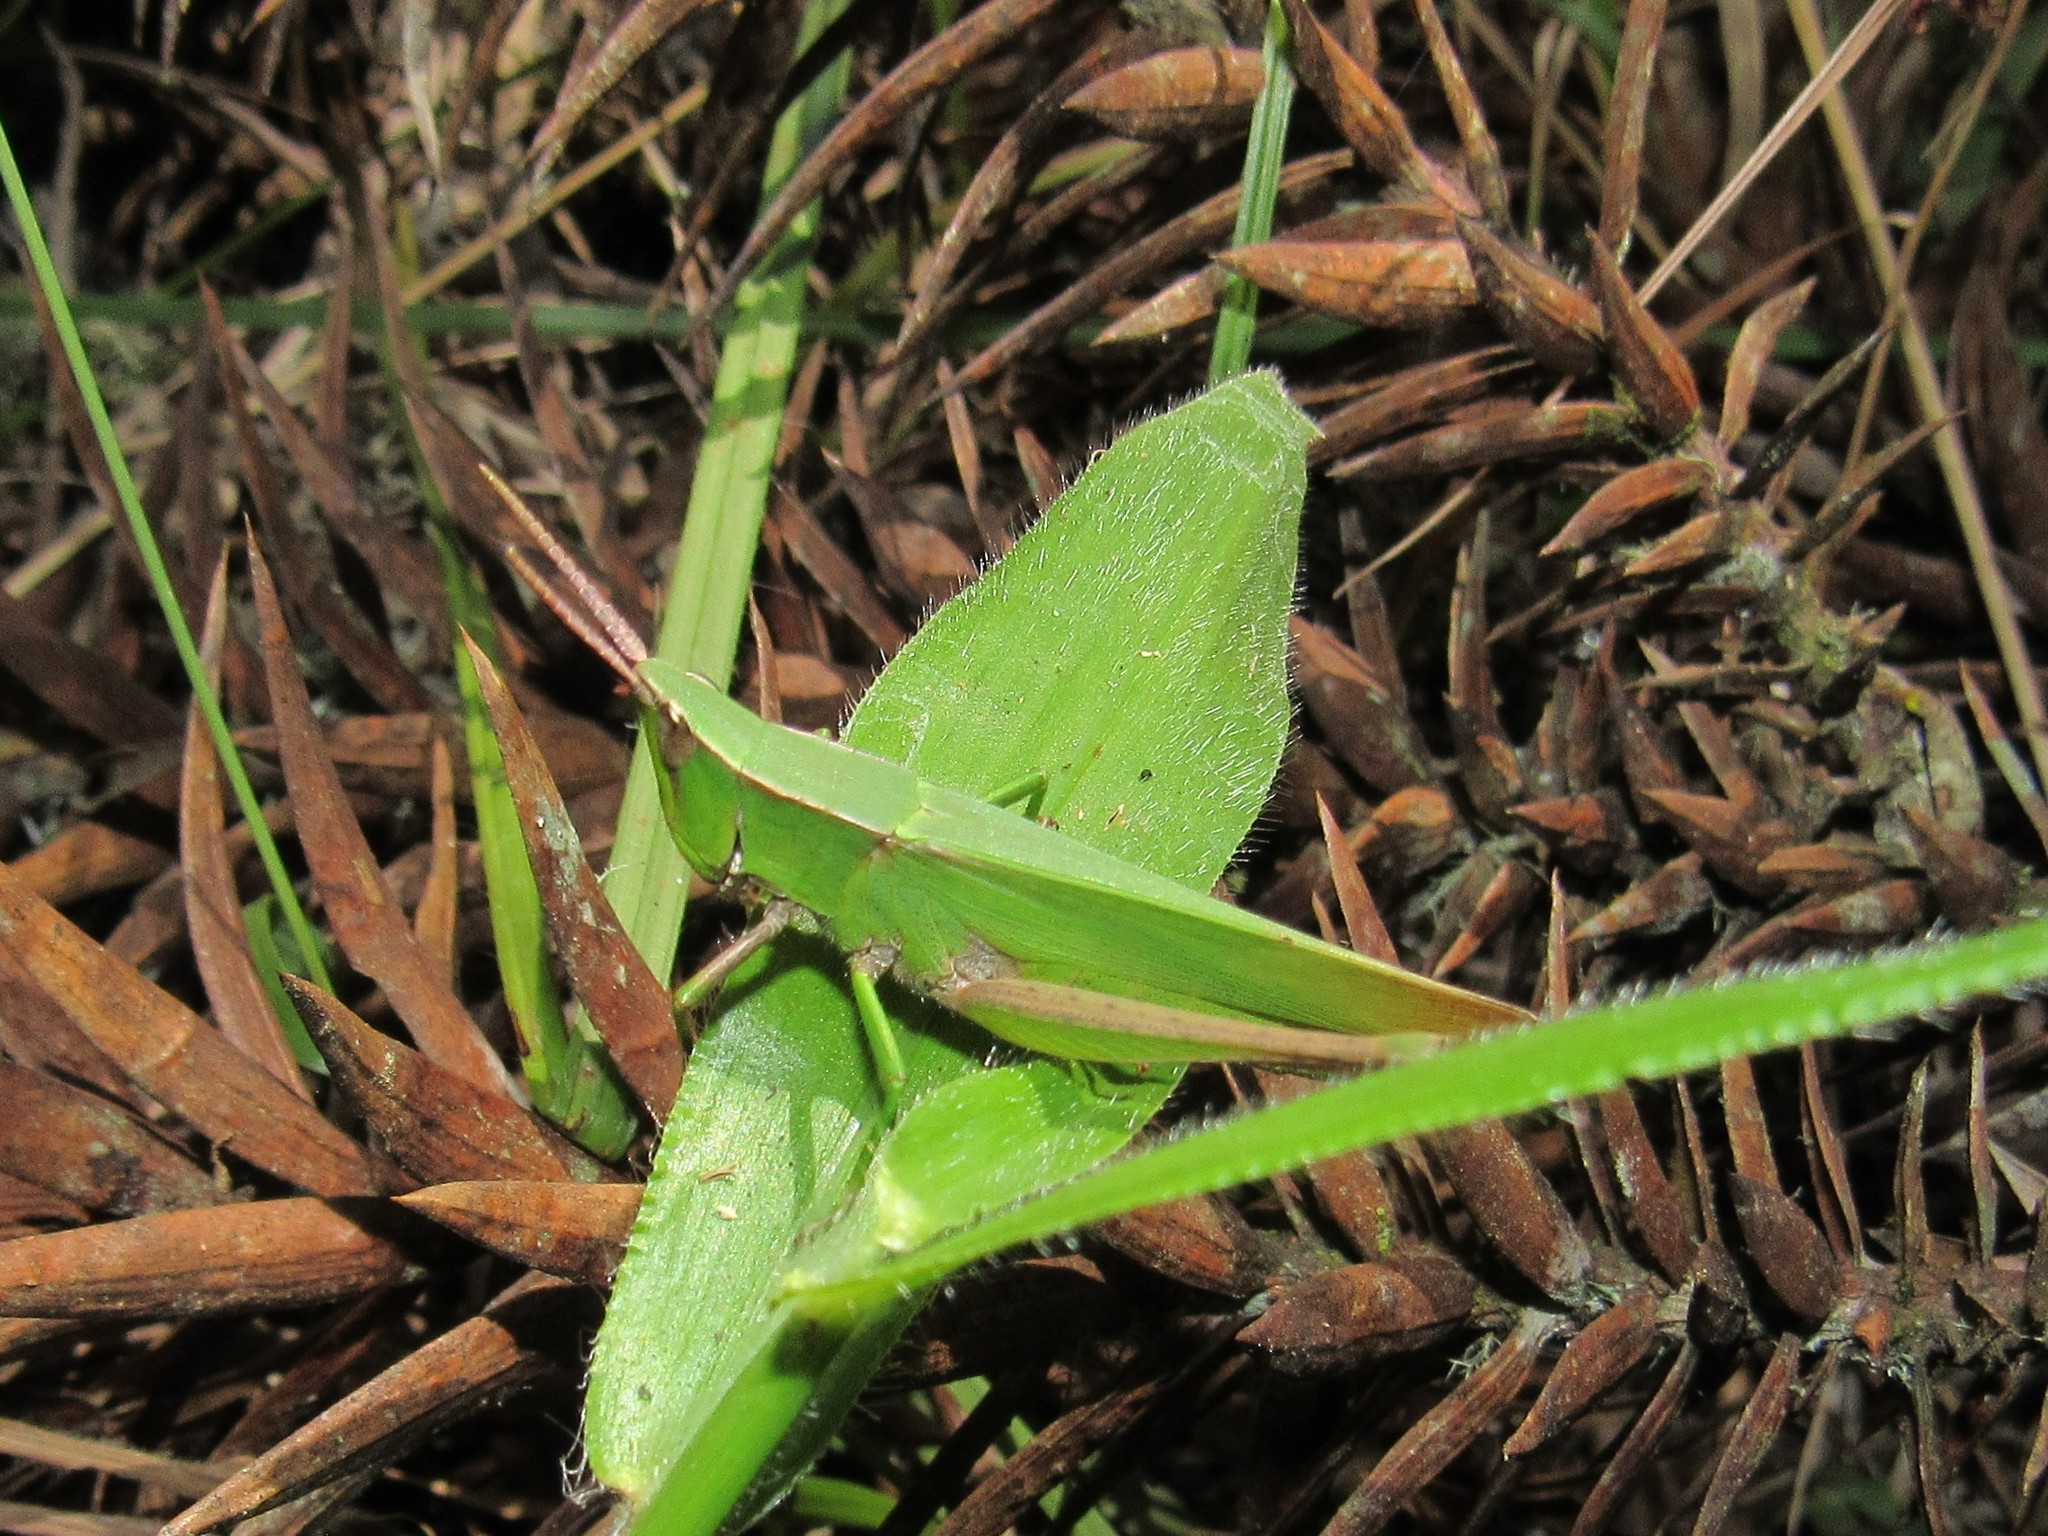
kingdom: Animalia
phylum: Arthropoda
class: Insecta
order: Orthoptera
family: Acrididae
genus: Metaleptea
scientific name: Metaleptea adspersa
